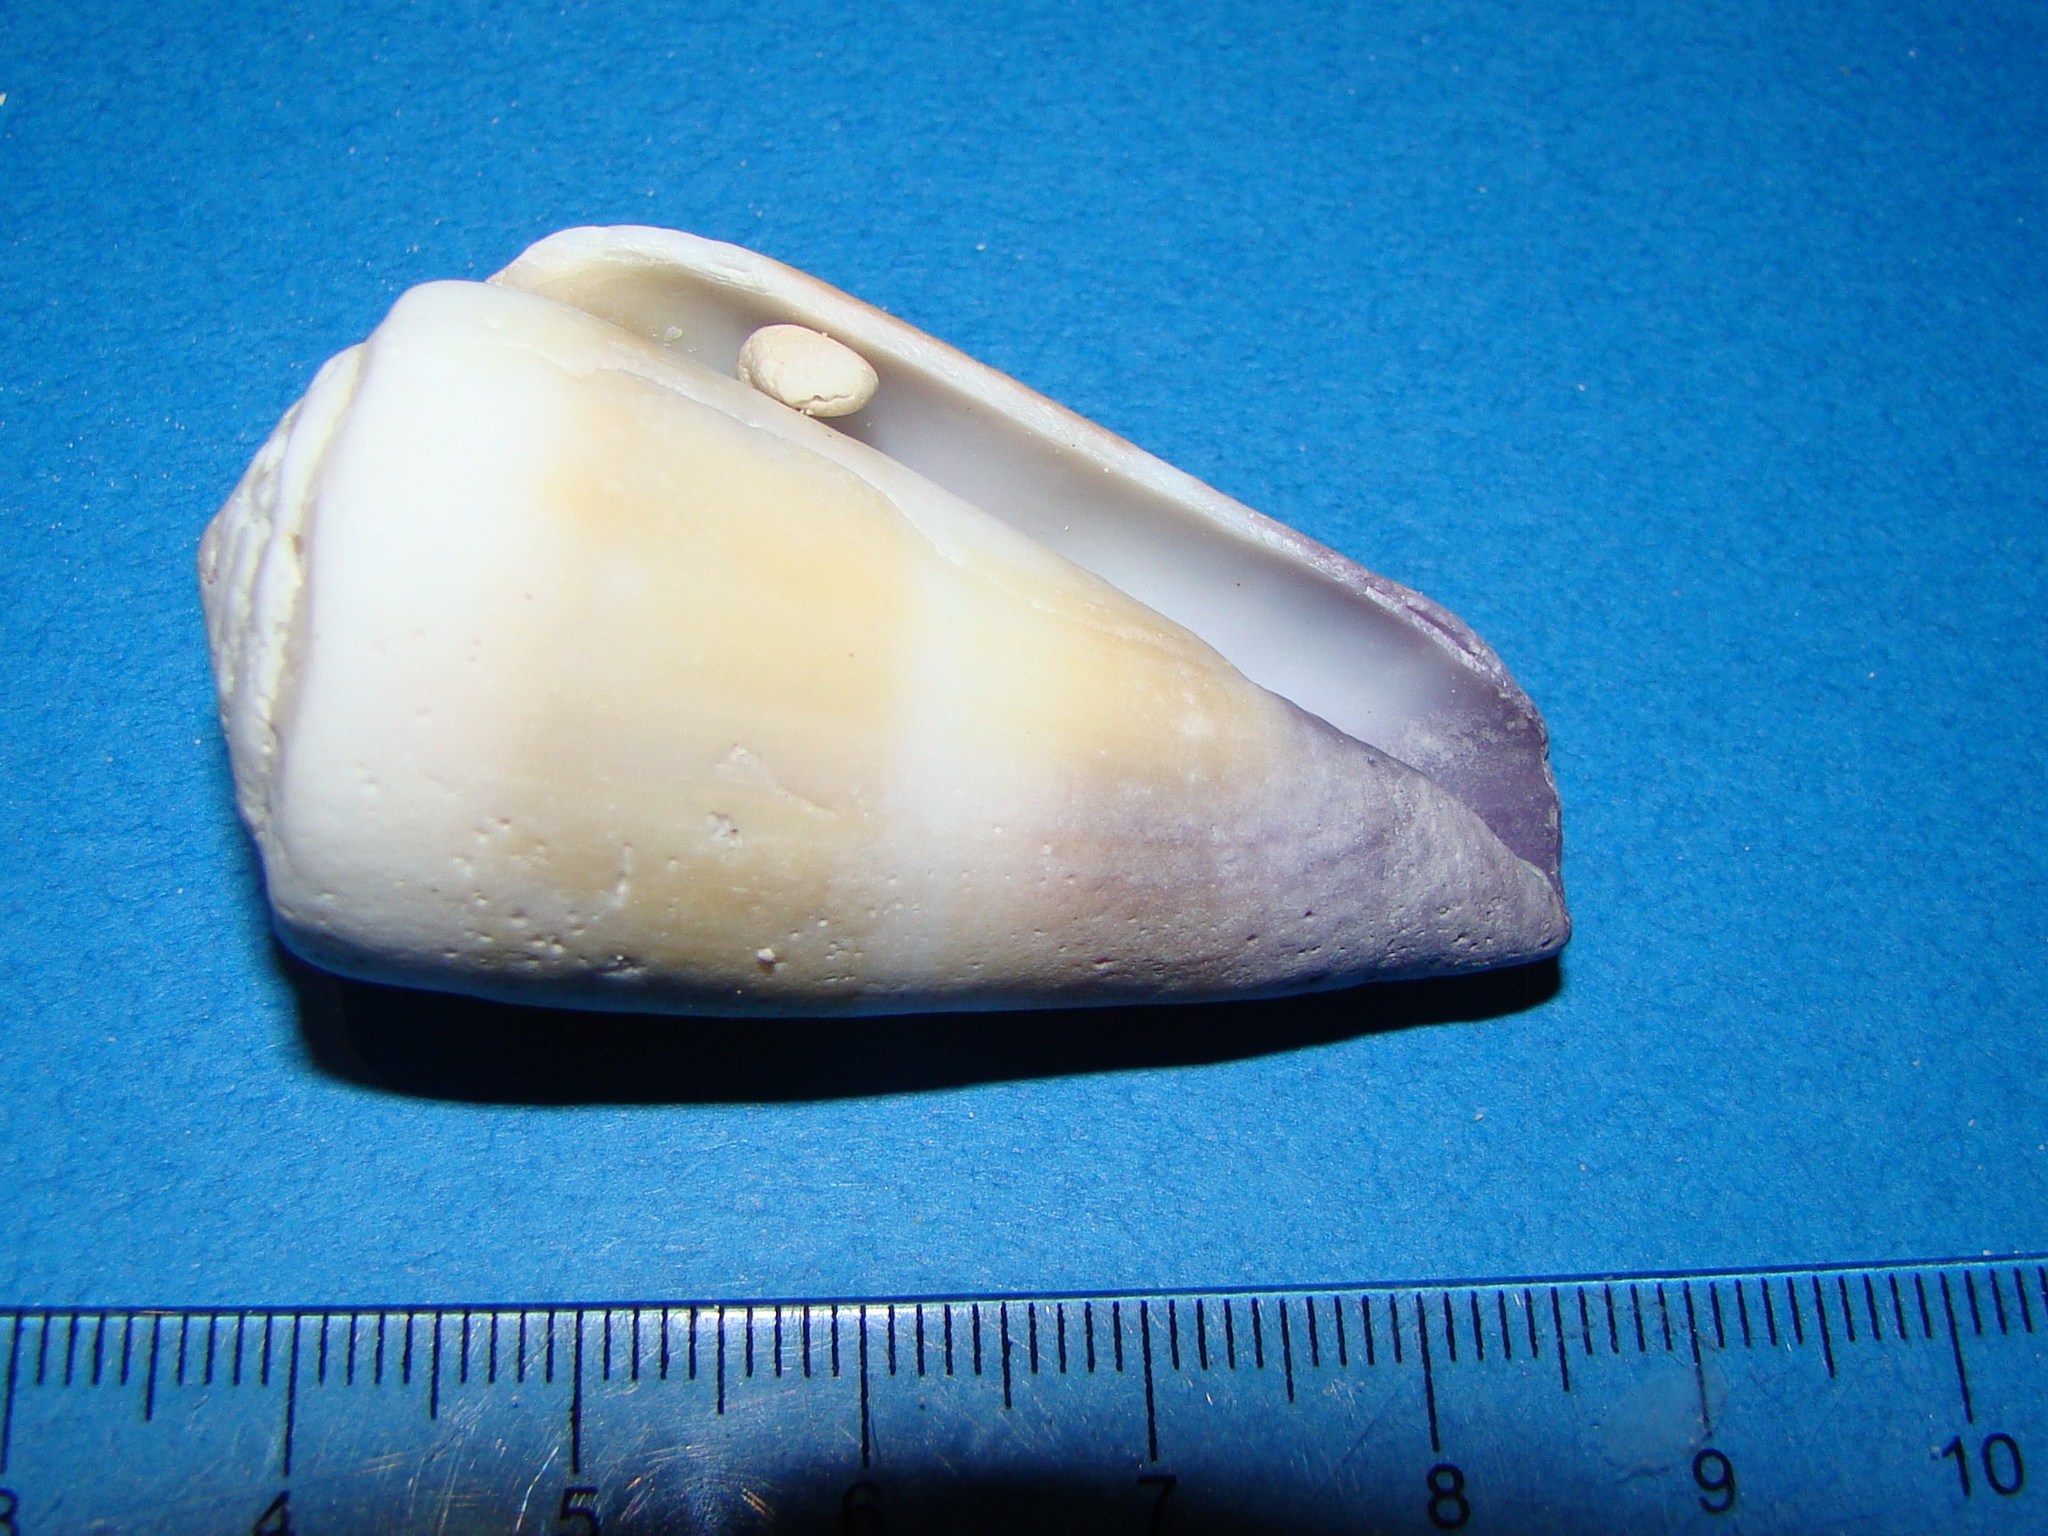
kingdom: Animalia
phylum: Mollusca
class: Gastropoda
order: Neogastropoda
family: Conidae
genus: Conus
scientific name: Conus flavidus
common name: Golden-yellow cone
